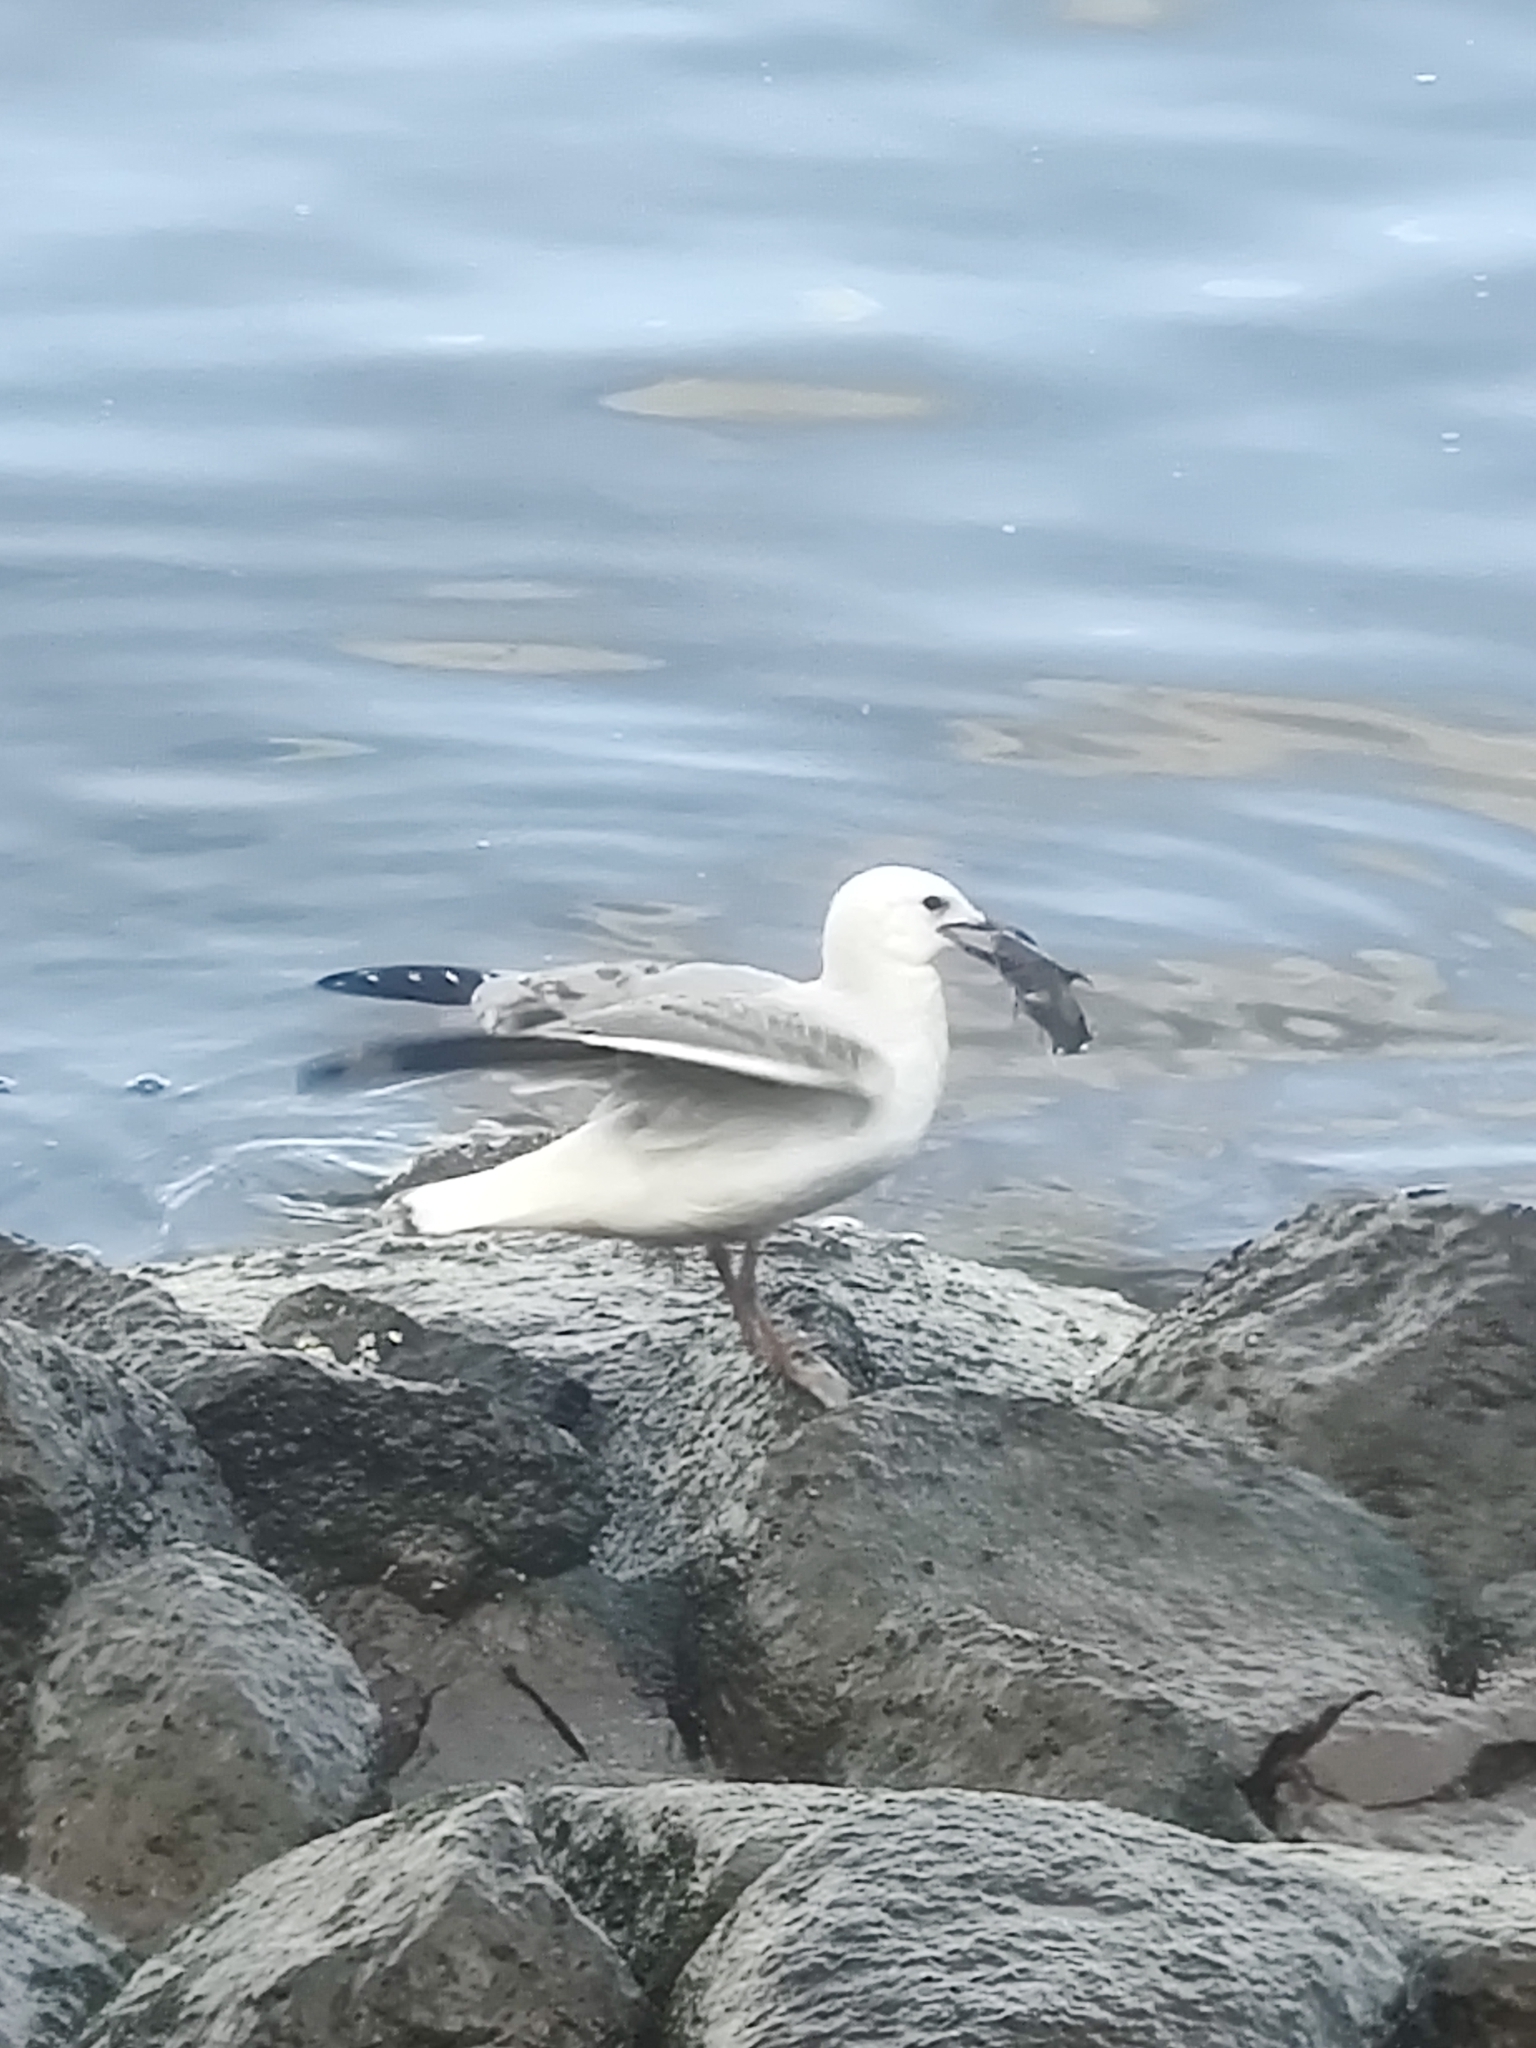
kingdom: Animalia
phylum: Chordata
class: Aves
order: Charadriiformes
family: Laridae
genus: Chroicocephalus
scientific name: Chroicocephalus novaehollandiae
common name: Silver gull
